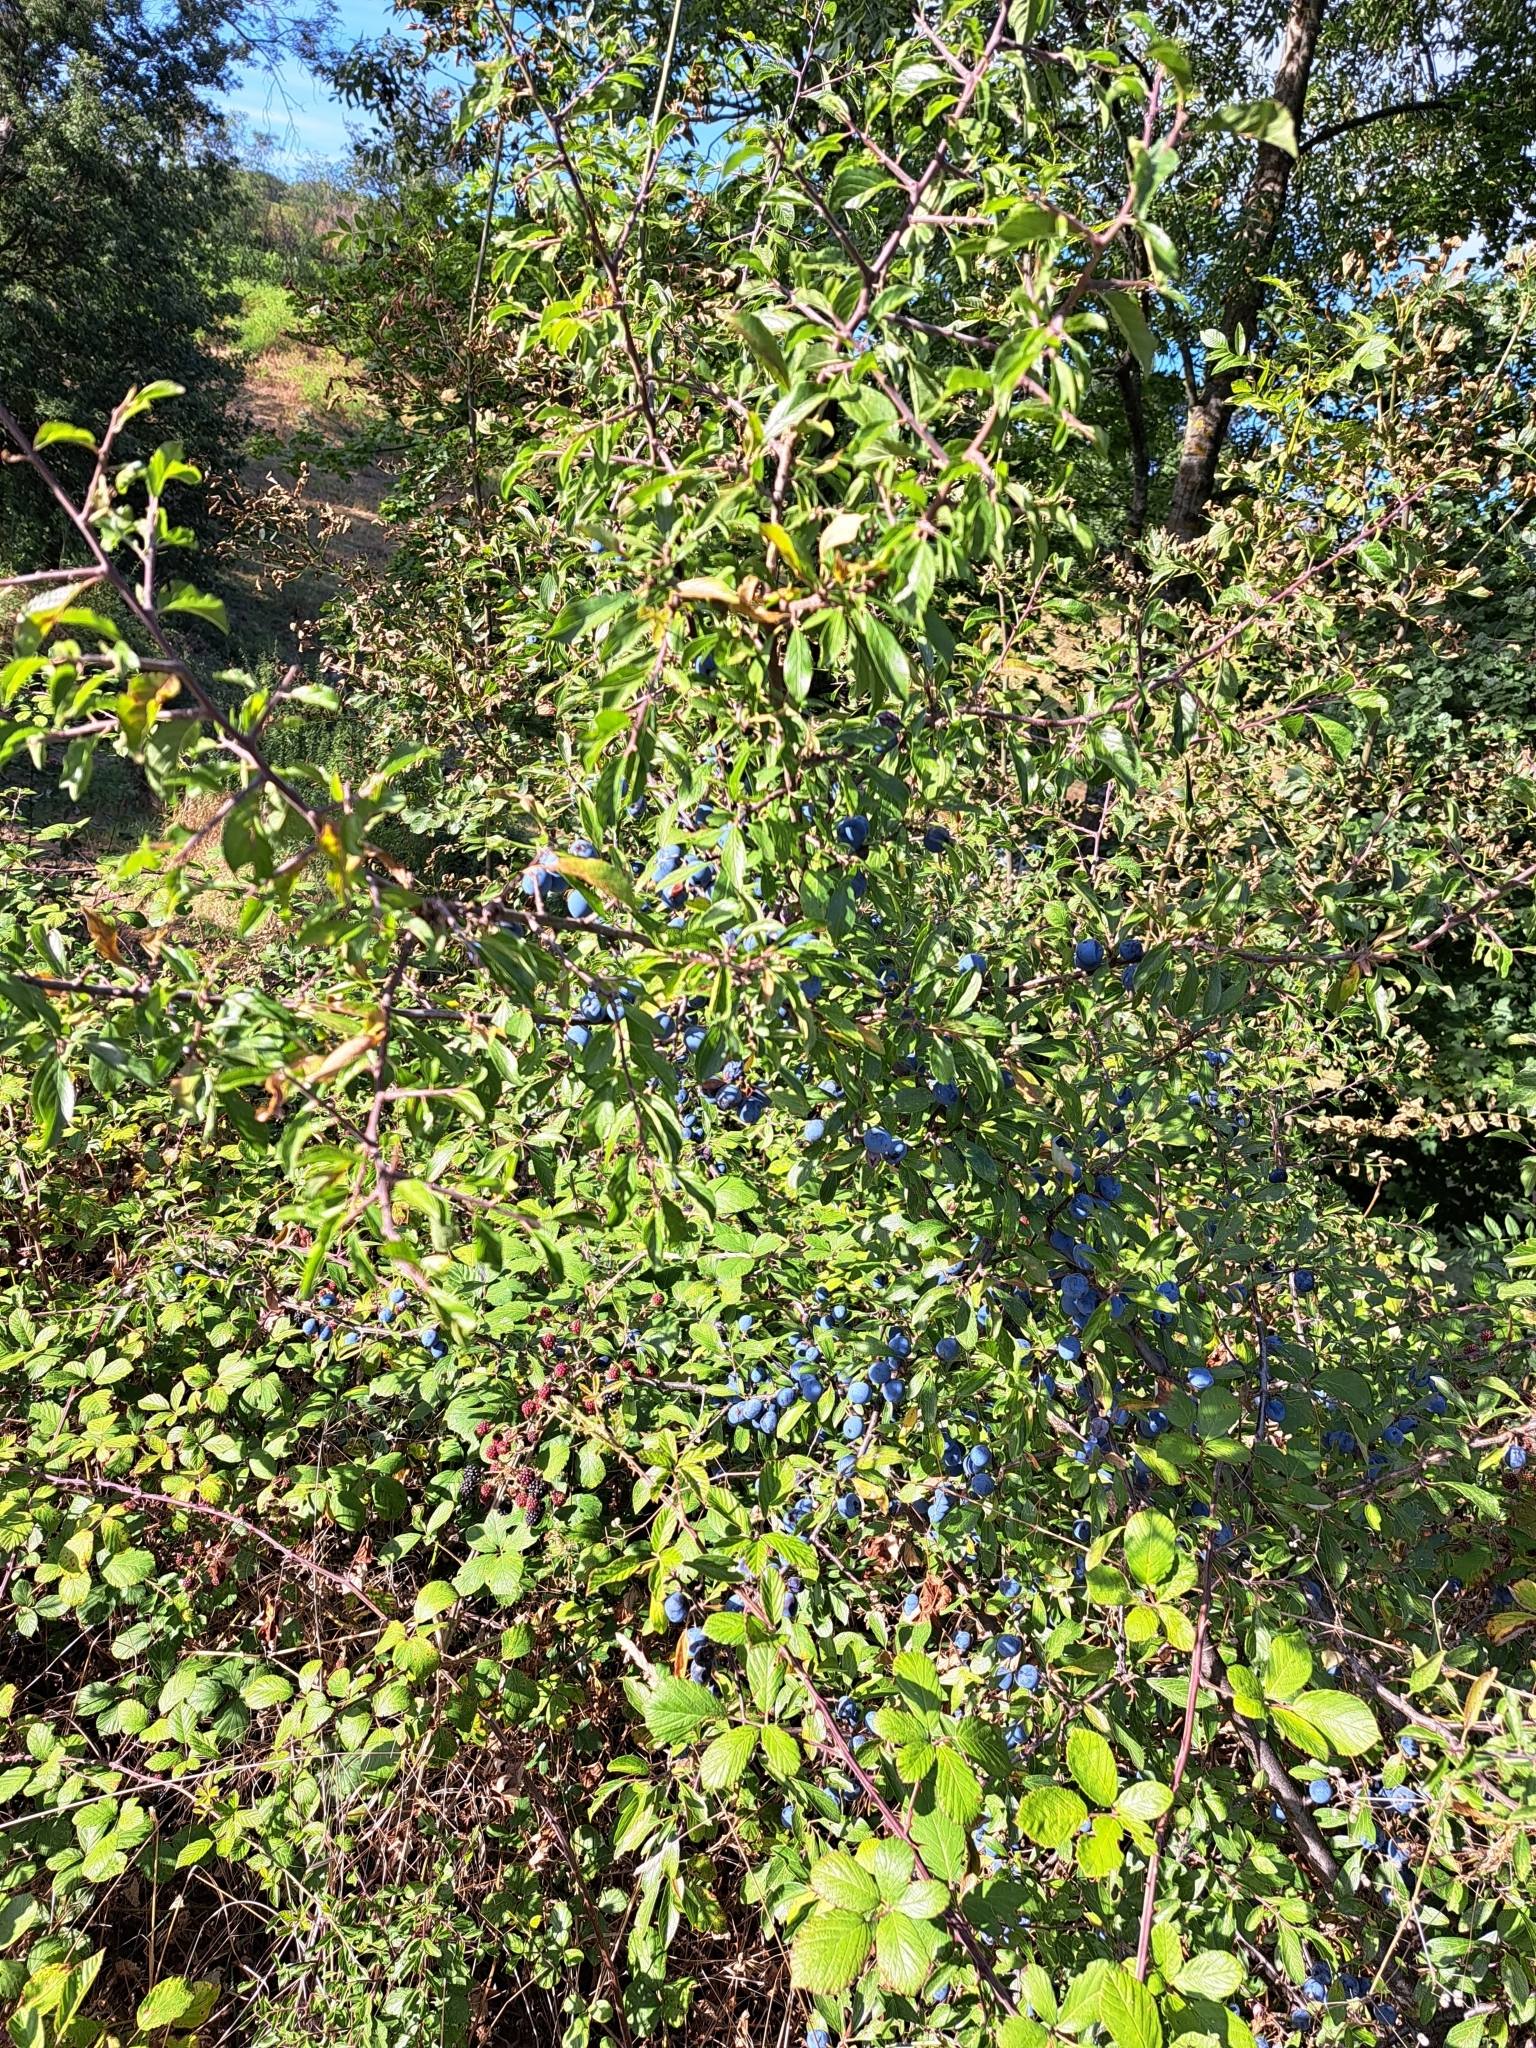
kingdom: Plantae
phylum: Tracheophyta
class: Magnoliopsida
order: Rosales
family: Rosaceae
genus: Prunus
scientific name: Prunus spinosa
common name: Blackthorn
